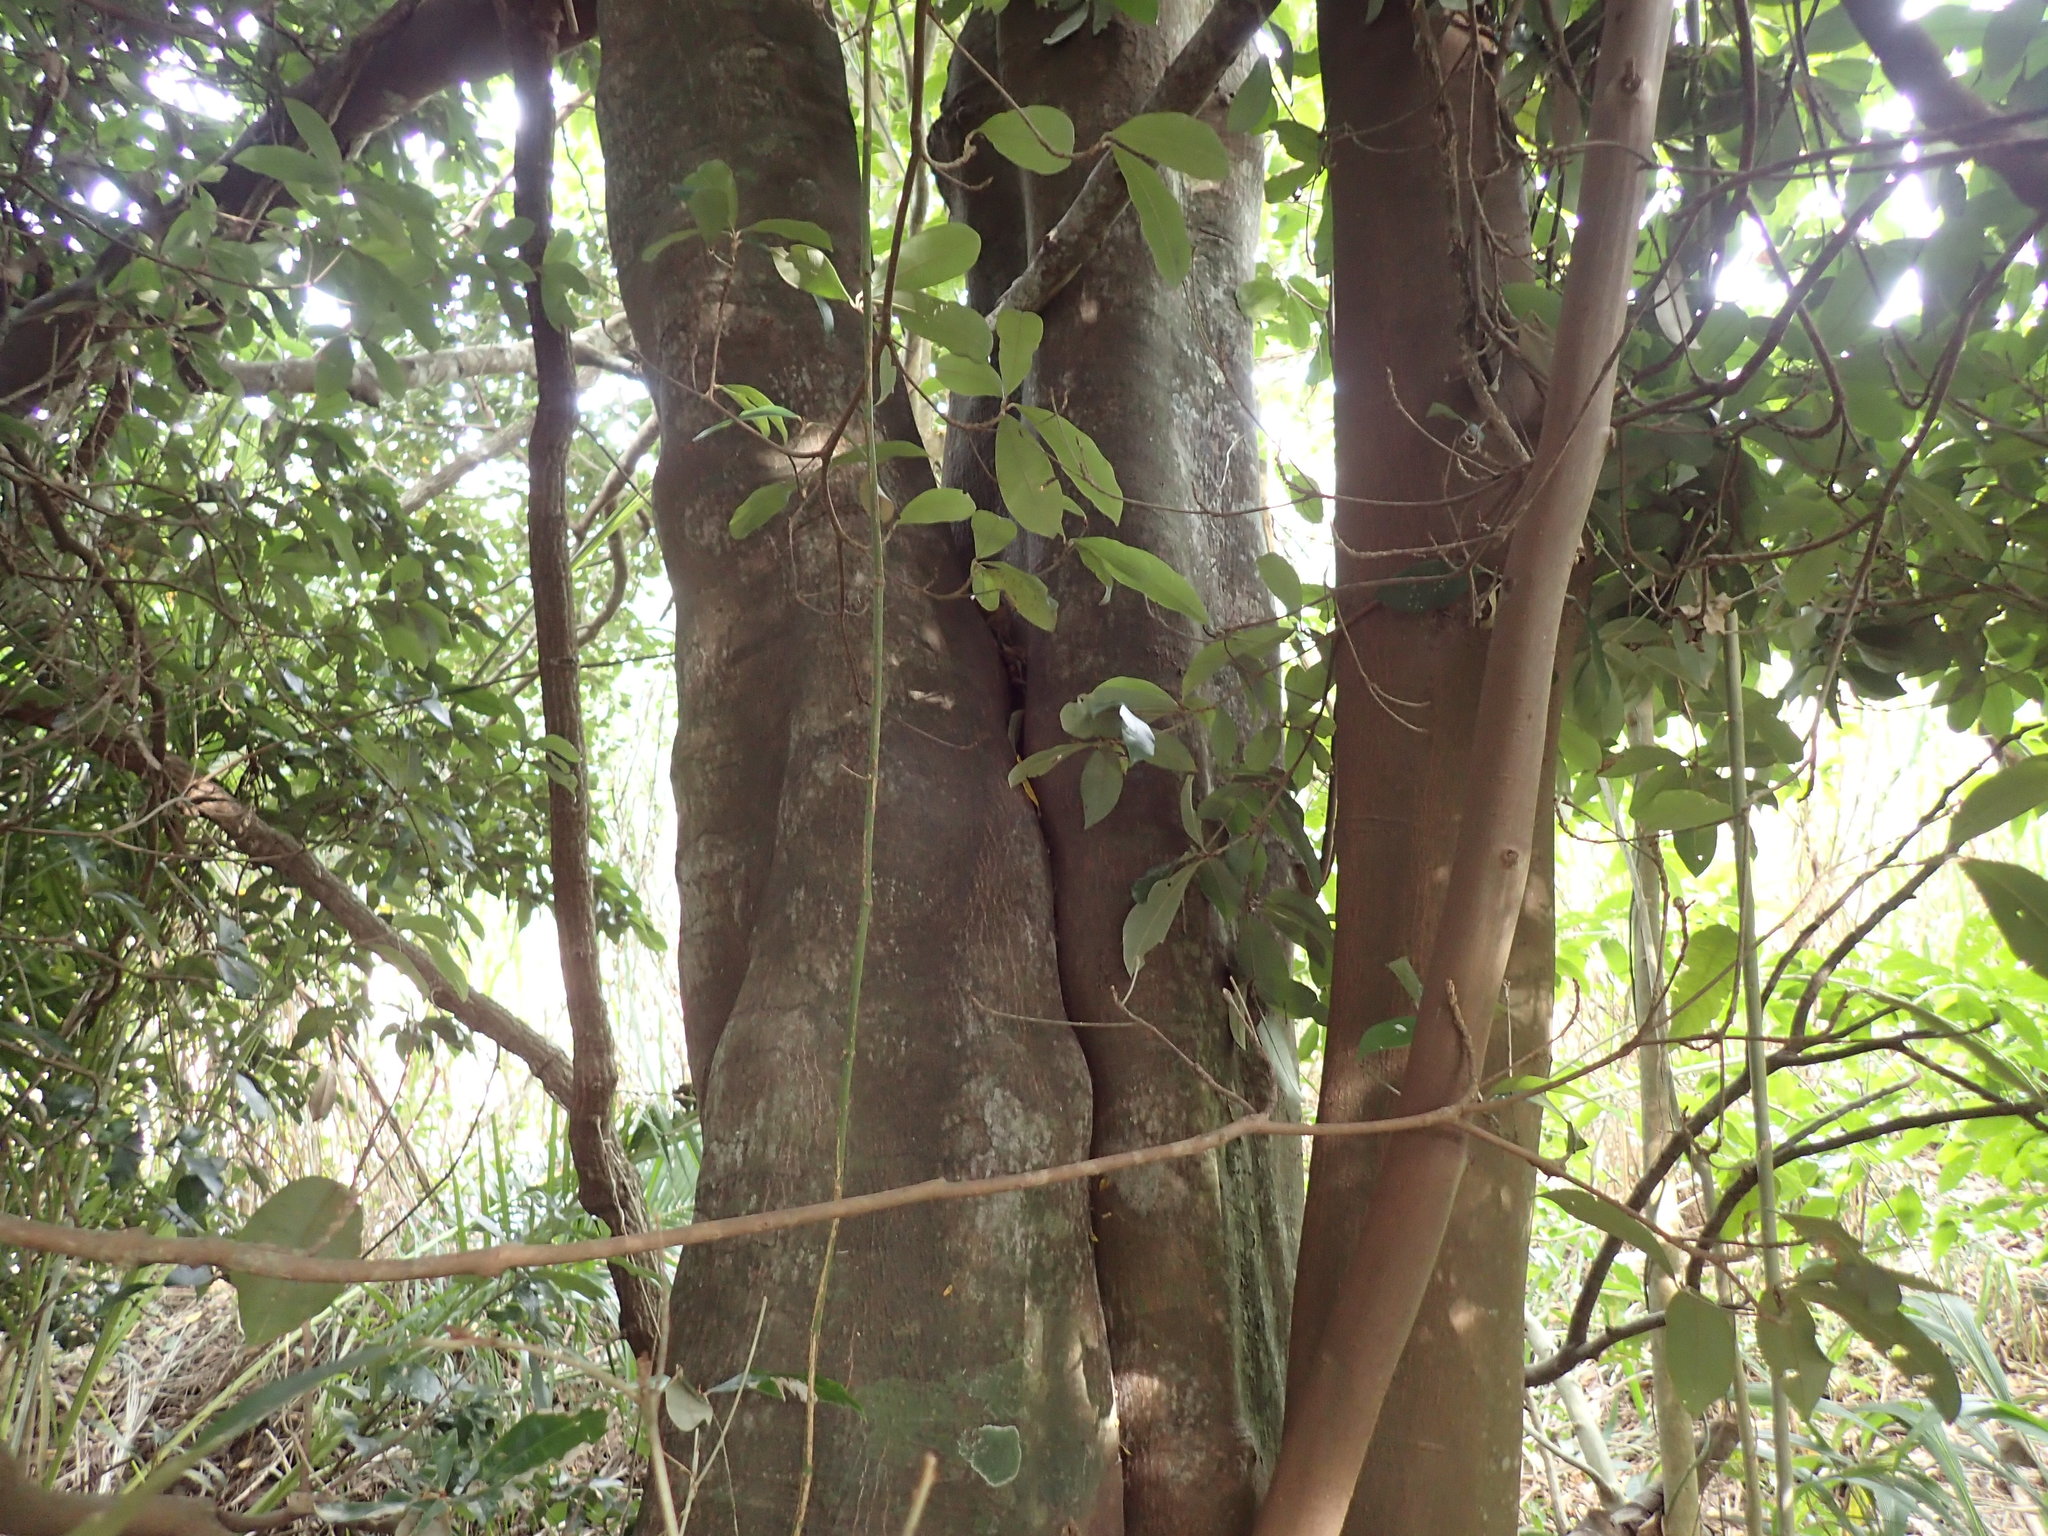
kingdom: Plantae
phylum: Tracheophyta
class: Magnoliopsida
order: Ericales
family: Sapotaceae
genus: Englerophytum
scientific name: Englerophytum natalense
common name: Silver-leaved milkplum
